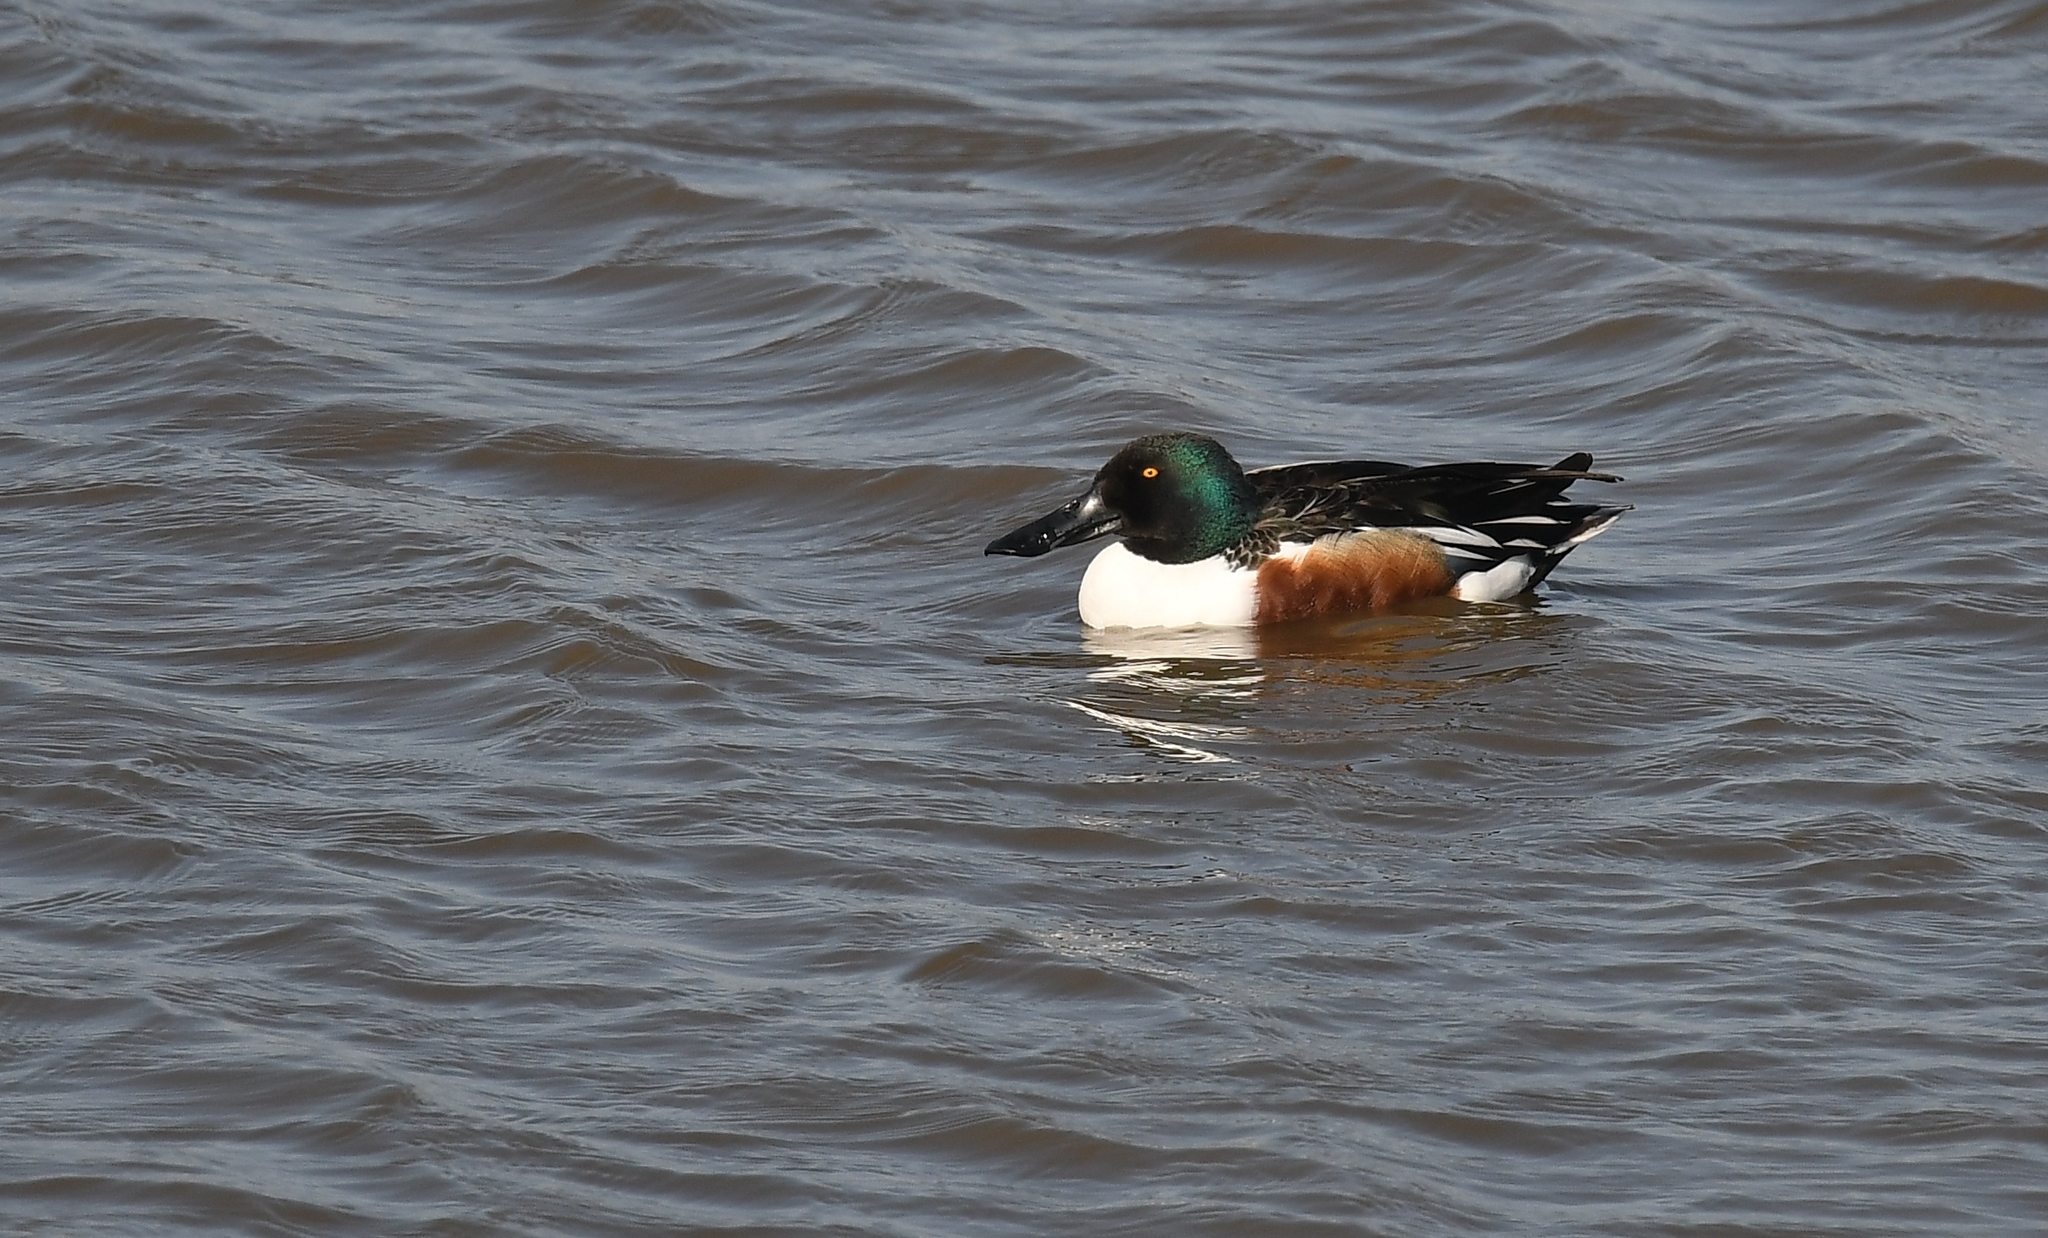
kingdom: Animalia
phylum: Chordata
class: Aves
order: Anseriformes
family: Anatidae
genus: Spatula
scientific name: Spatula clypeata
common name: Northern shoveler
